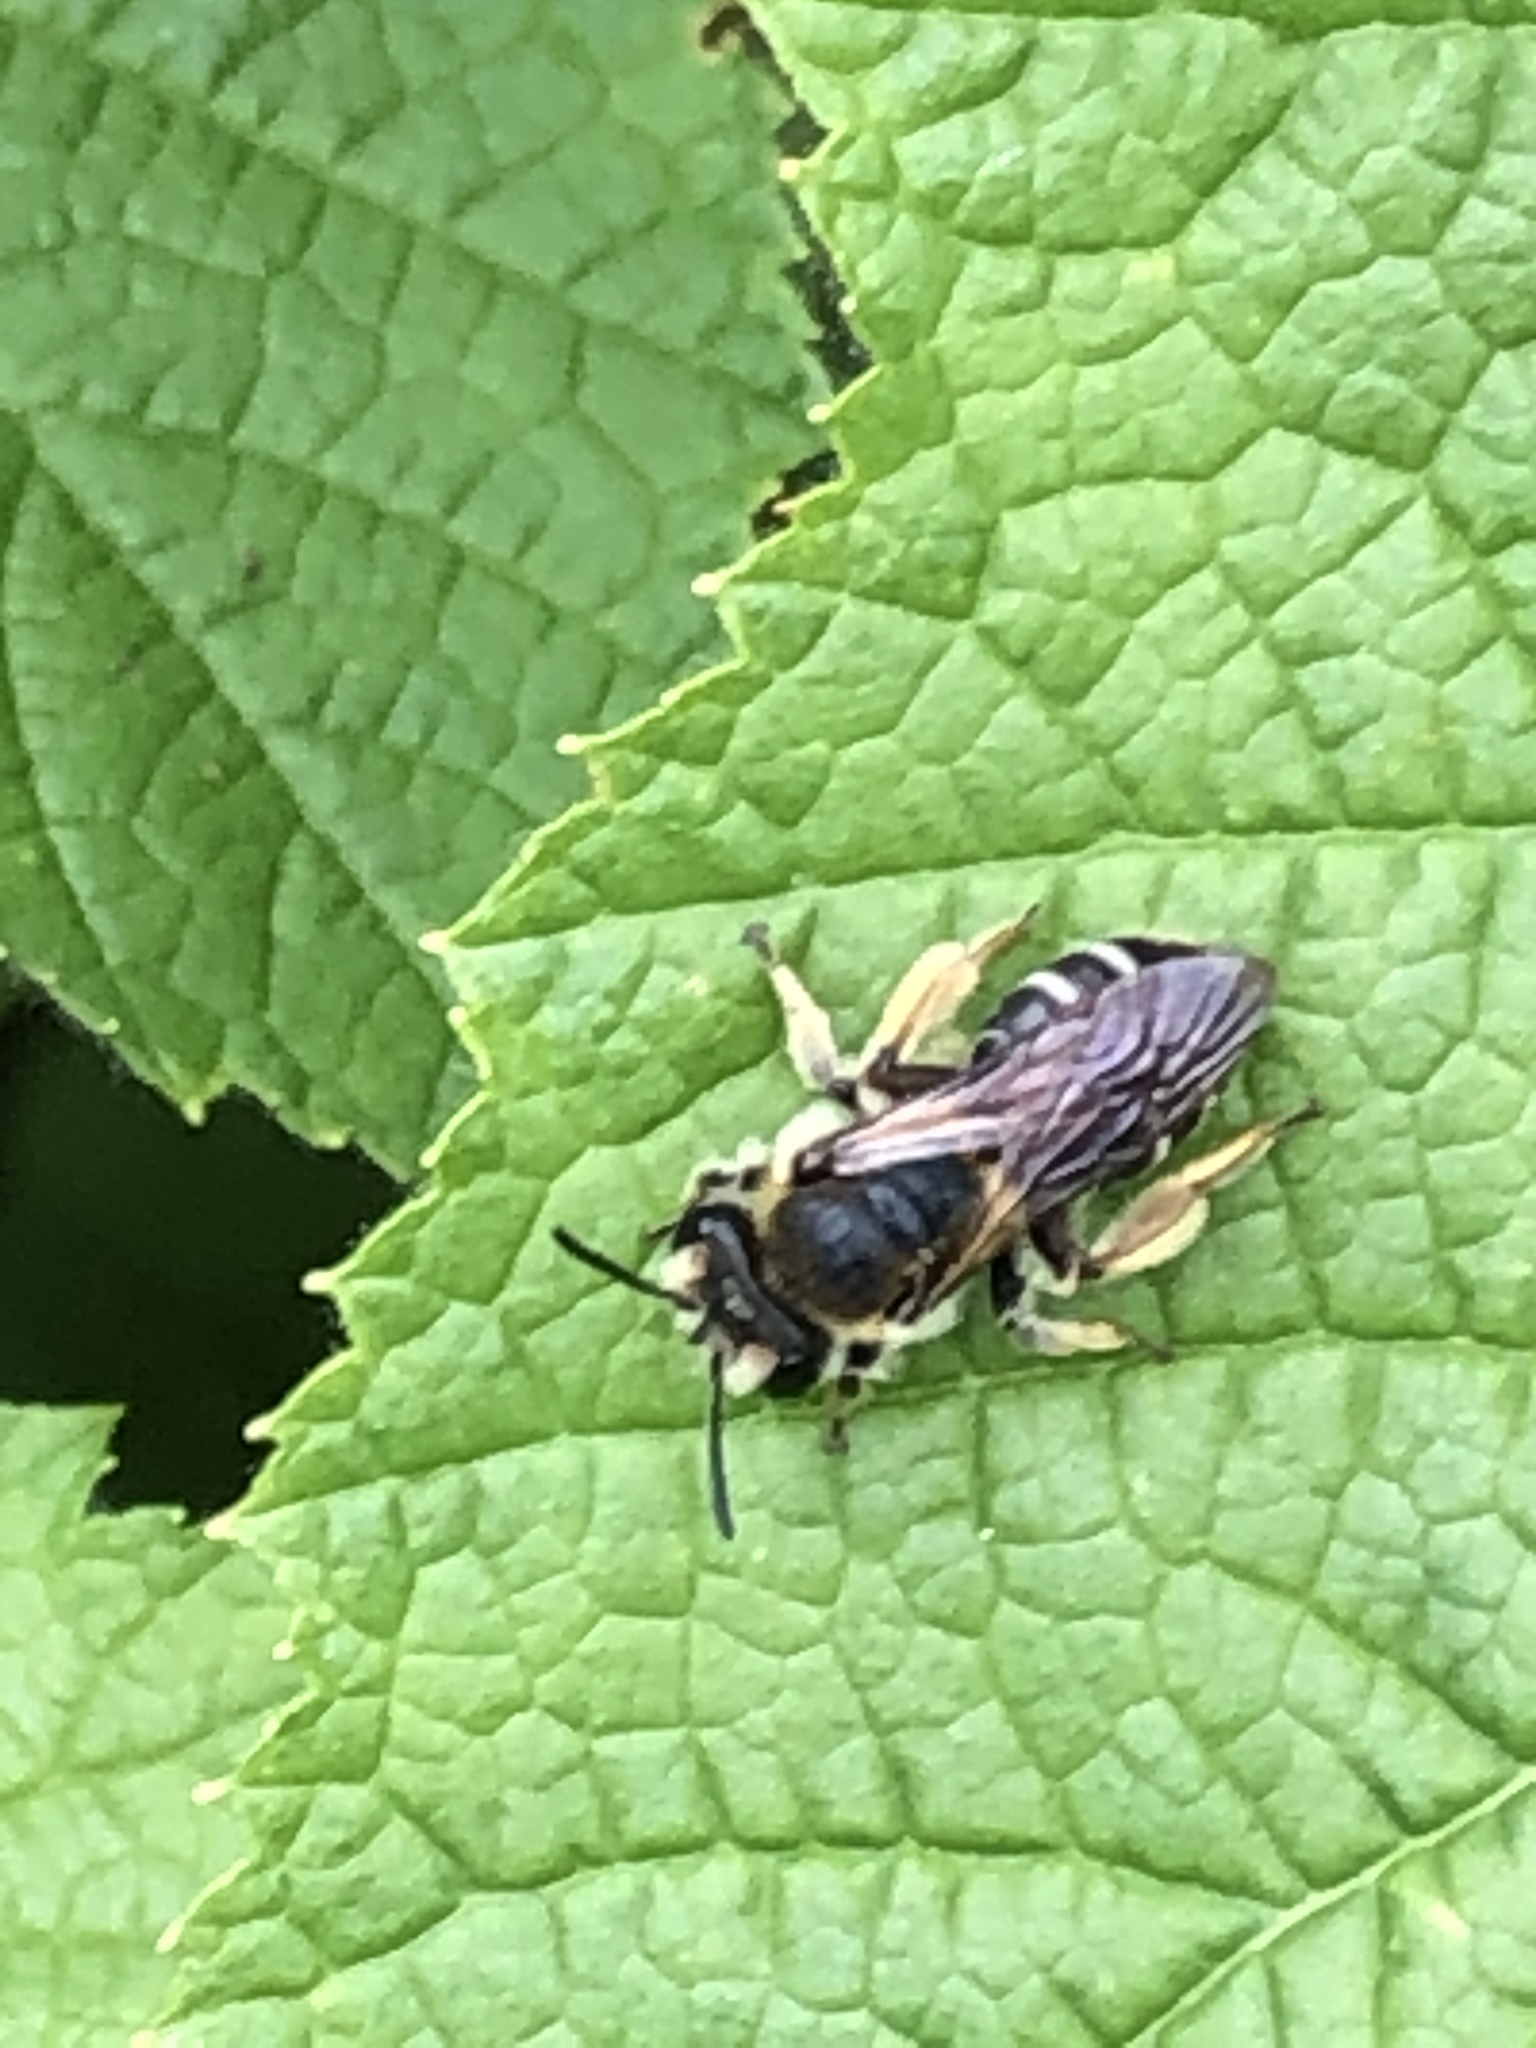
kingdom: Animalia
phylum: Arthropoda
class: Insecta
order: Hymenoptera
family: Andrenidae
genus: Andrena
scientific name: Andrena wilkella
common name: Wilke's mining bee
